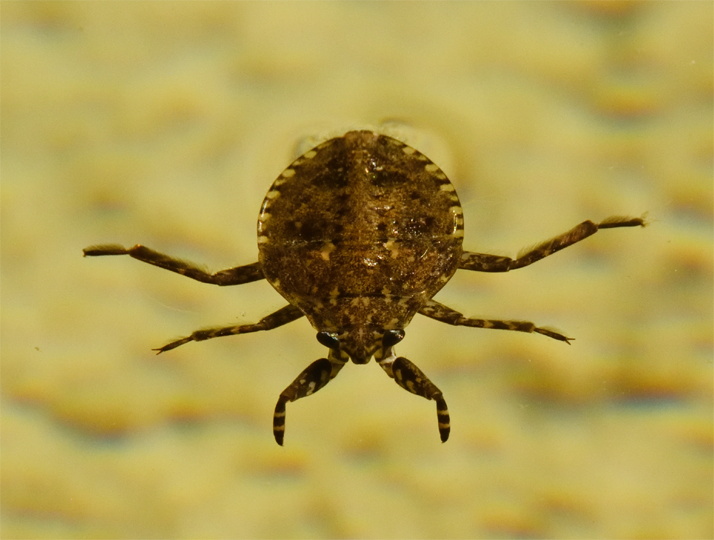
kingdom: Animalia
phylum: Arthropoda
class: Insecta
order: Hemiptera
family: Belostomatidae
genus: Abedus
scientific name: Abedus indentatus
